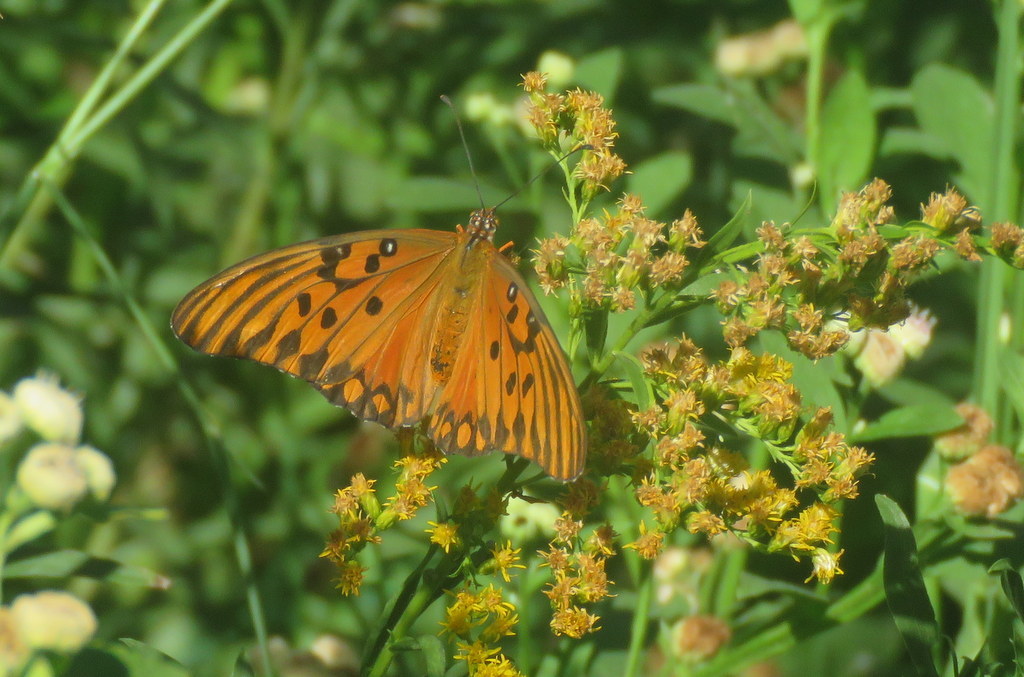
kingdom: Animalia
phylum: Arthropoda
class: Insecta
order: Lepidoptera
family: Nymphalidae
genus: Dione
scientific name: Dione vanillae
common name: Gulf fritillary
